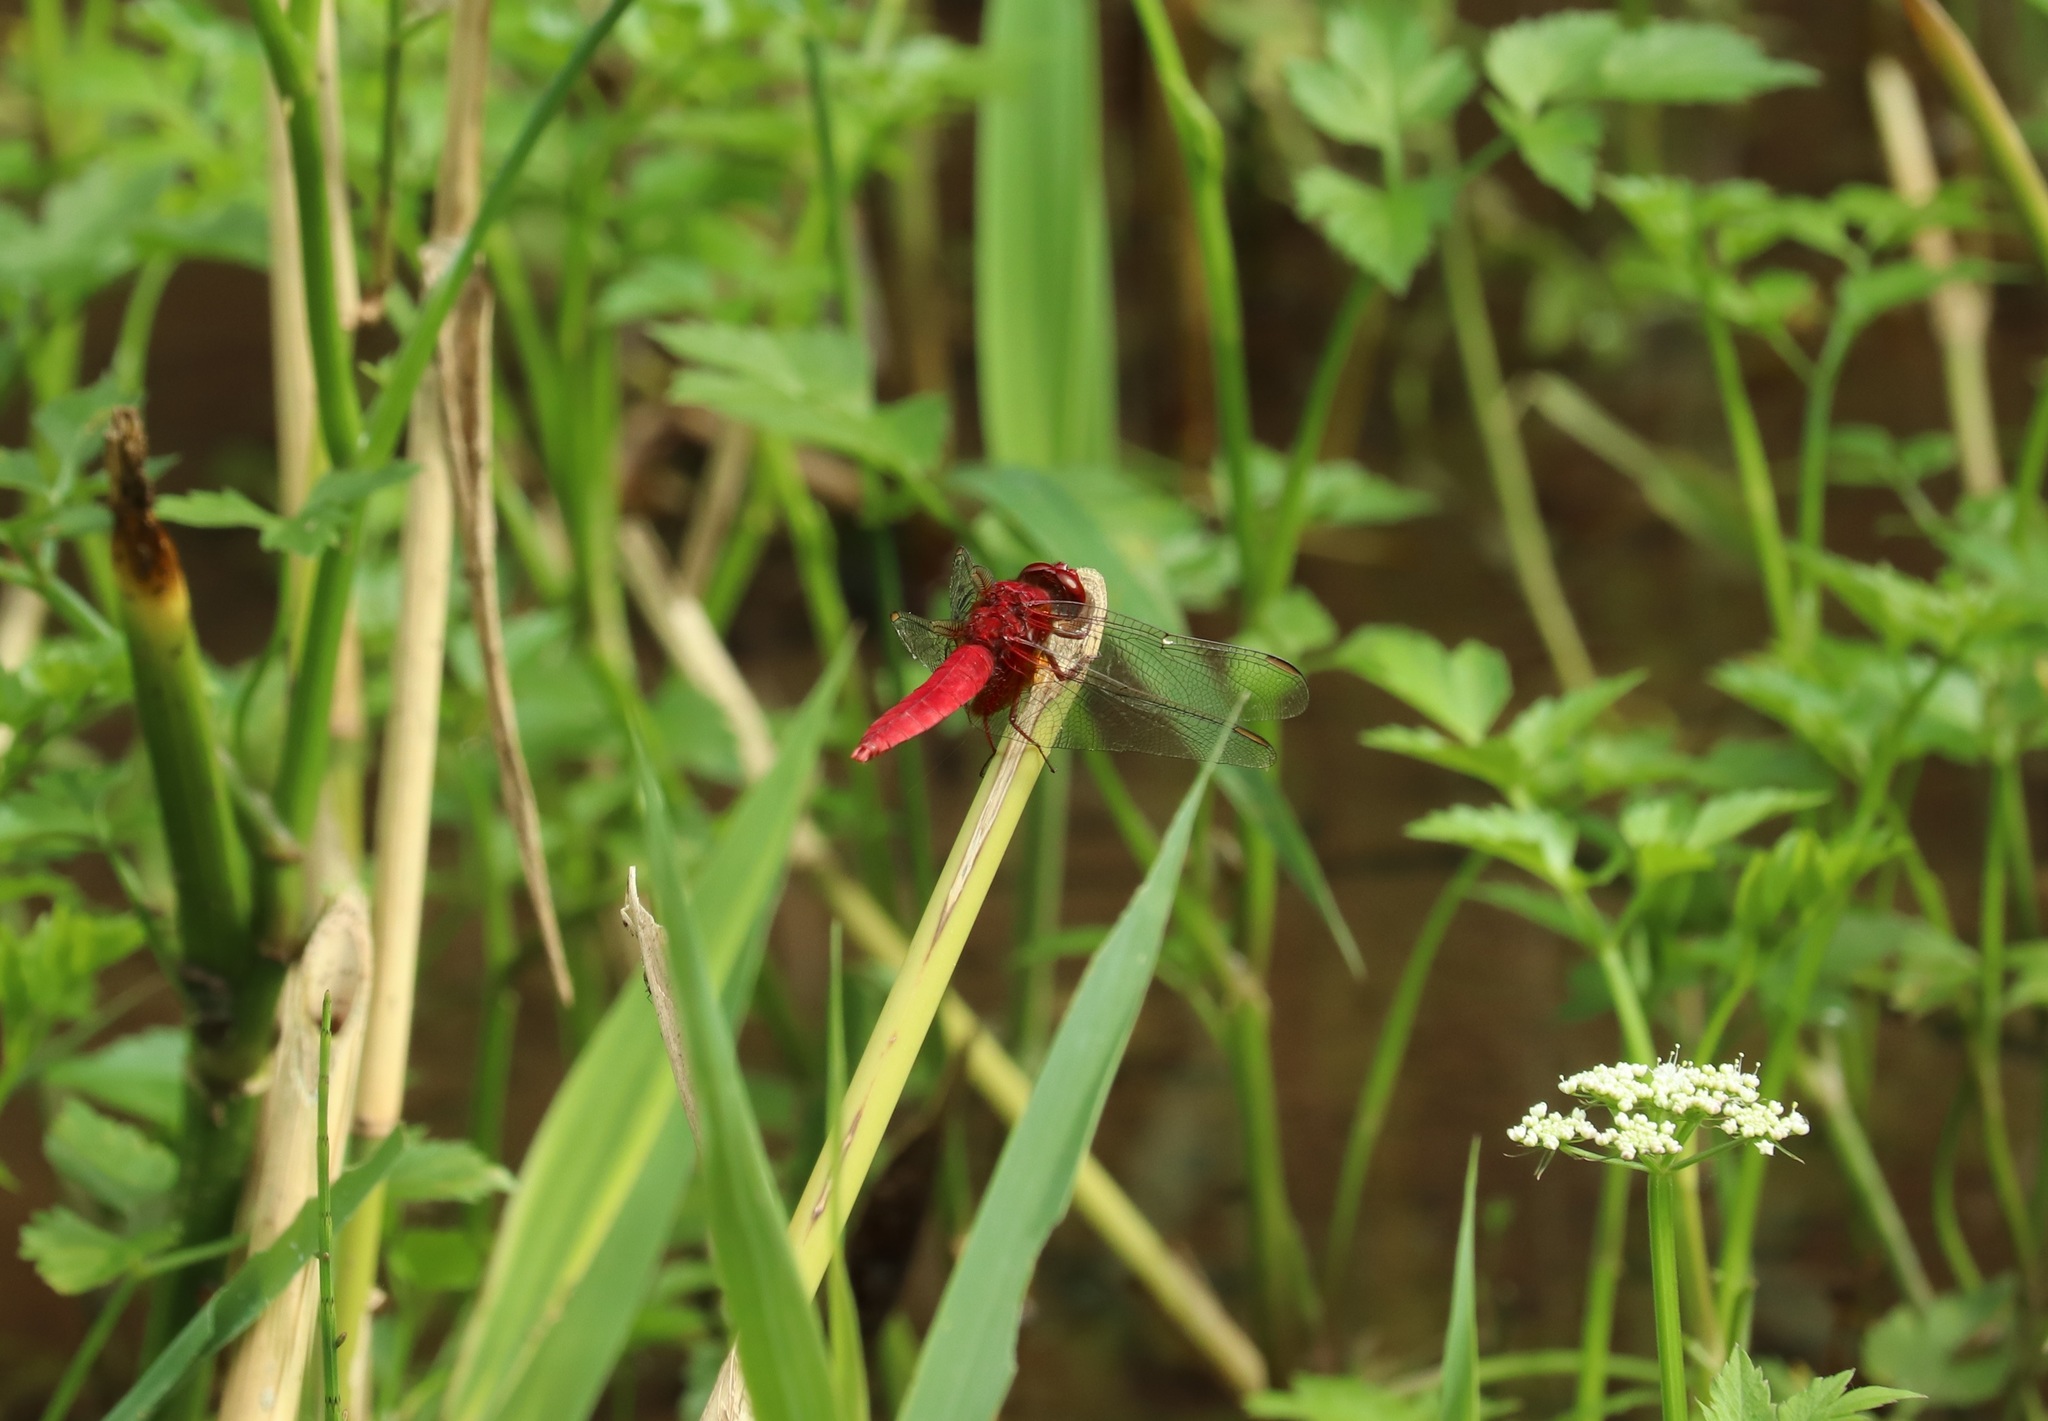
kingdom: Animalia
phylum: Arthropoda
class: Insecta
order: Odonata
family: Libellulidae
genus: Crocothemis
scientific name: Crocothemis servilia
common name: Scarlet skimmer
